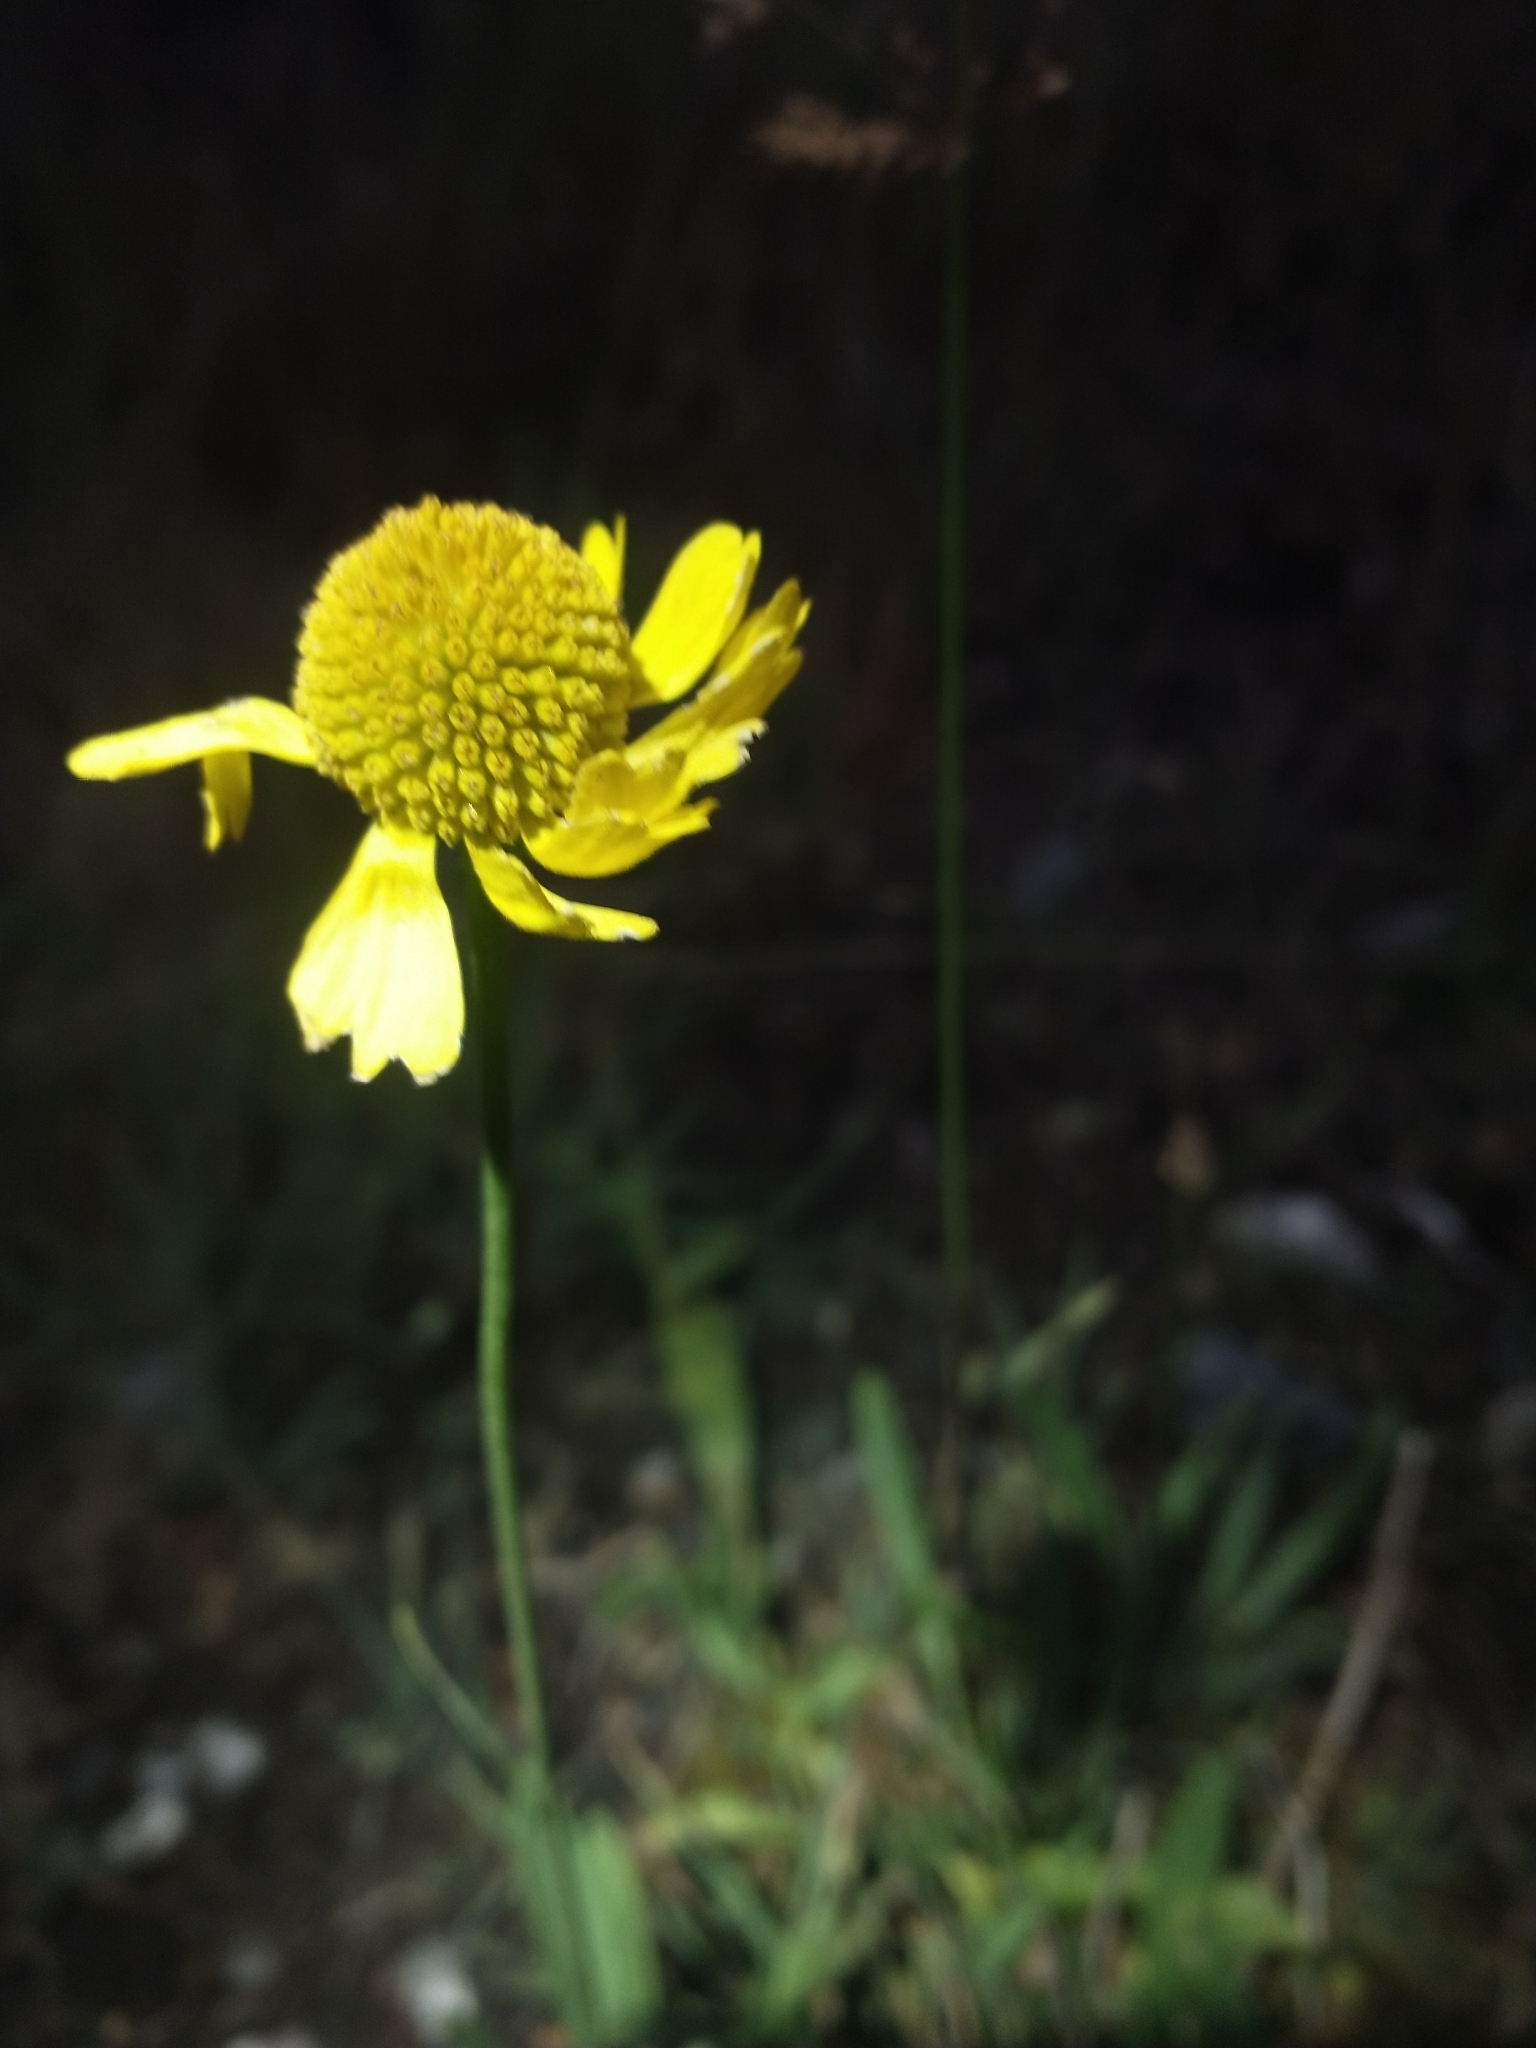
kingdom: Plantae
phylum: Tracheophyta
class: Magnoliopsida
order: Asterales
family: Asteraceae
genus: Helenium
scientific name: Helenium bigelovii
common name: Bigelow's sneezeweed
